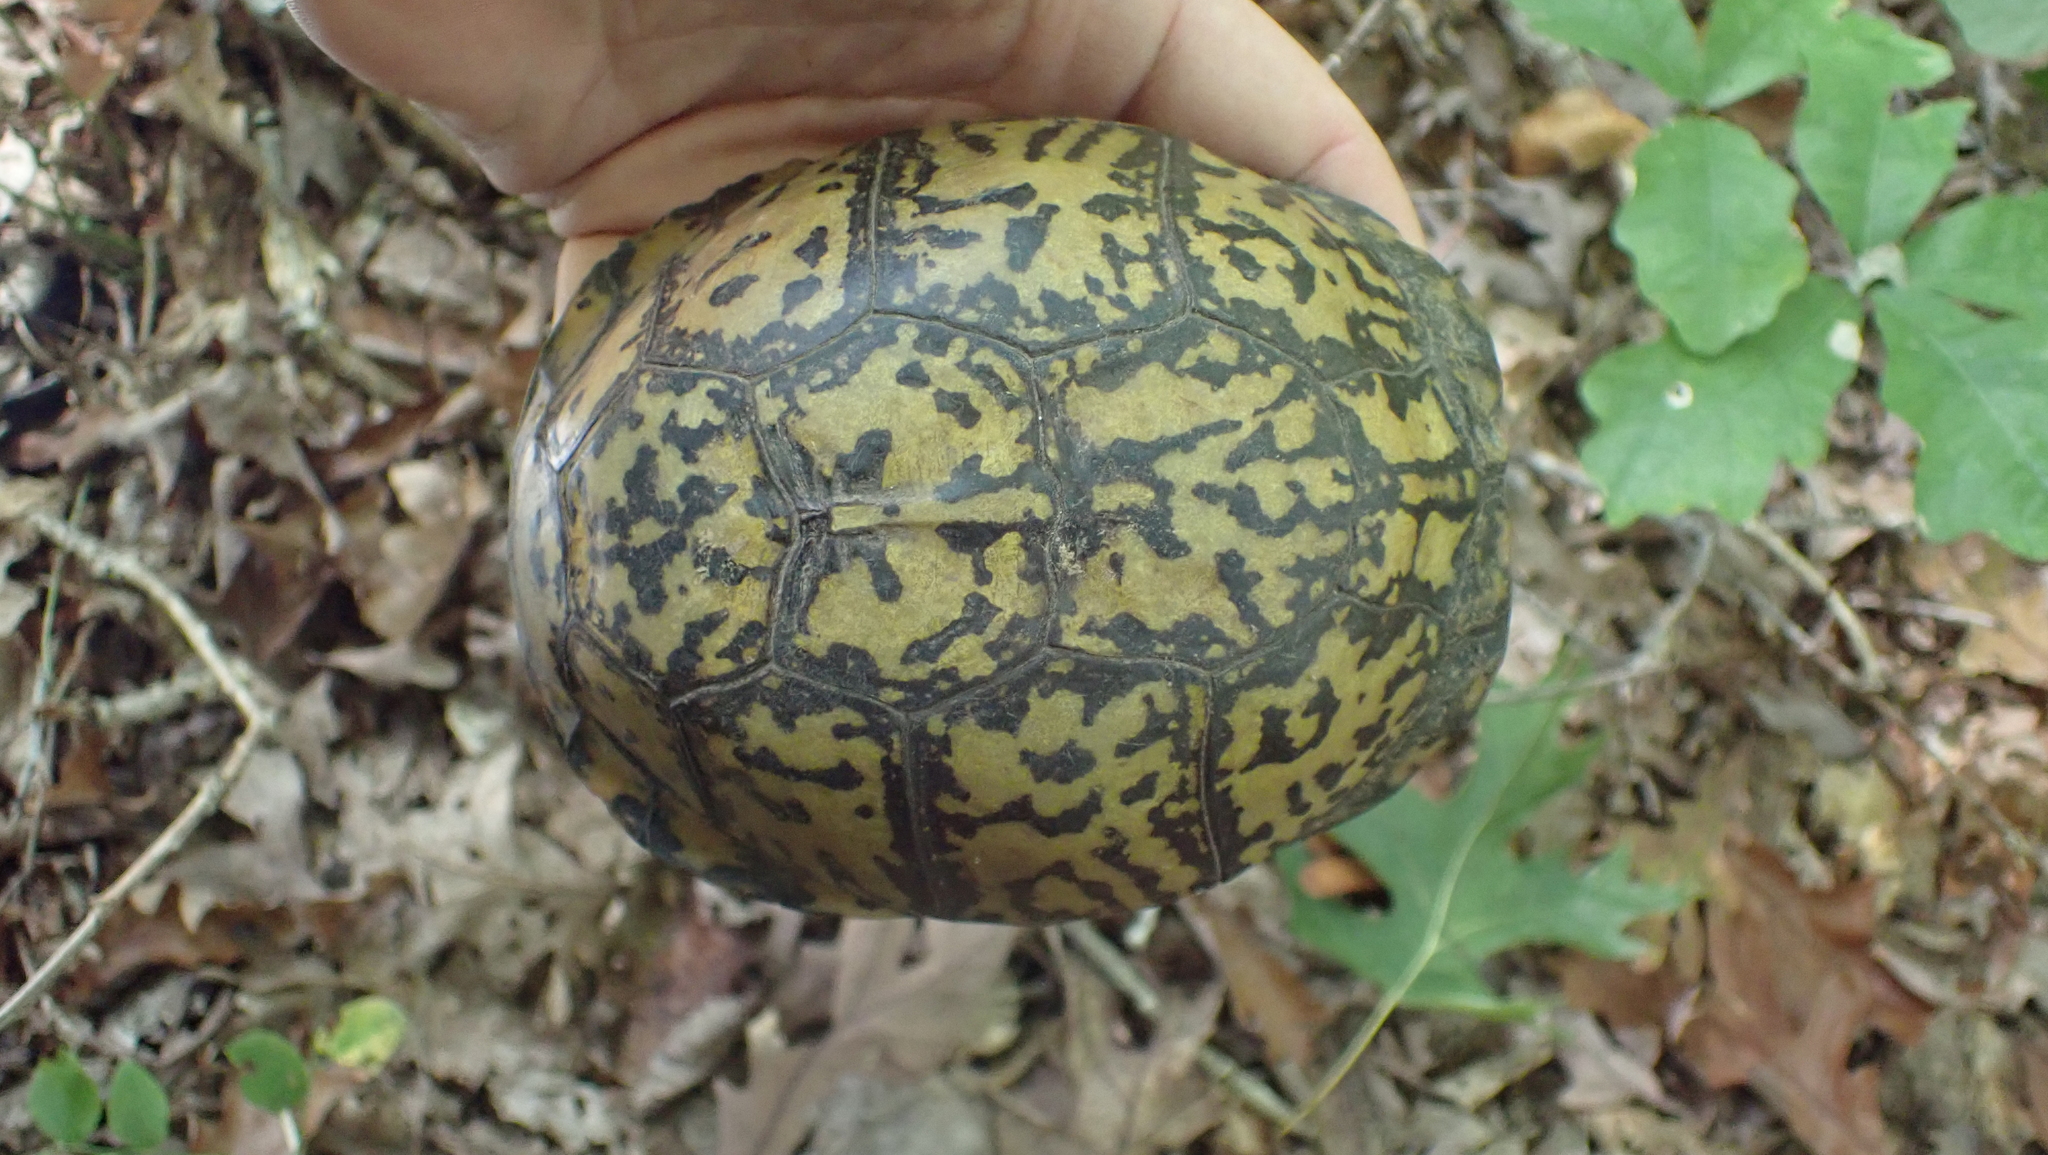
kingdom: Animalia
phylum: Chordata
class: Testudines
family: Emydidae
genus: Terrapene
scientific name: Terrapene carolina
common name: Common box turtle
